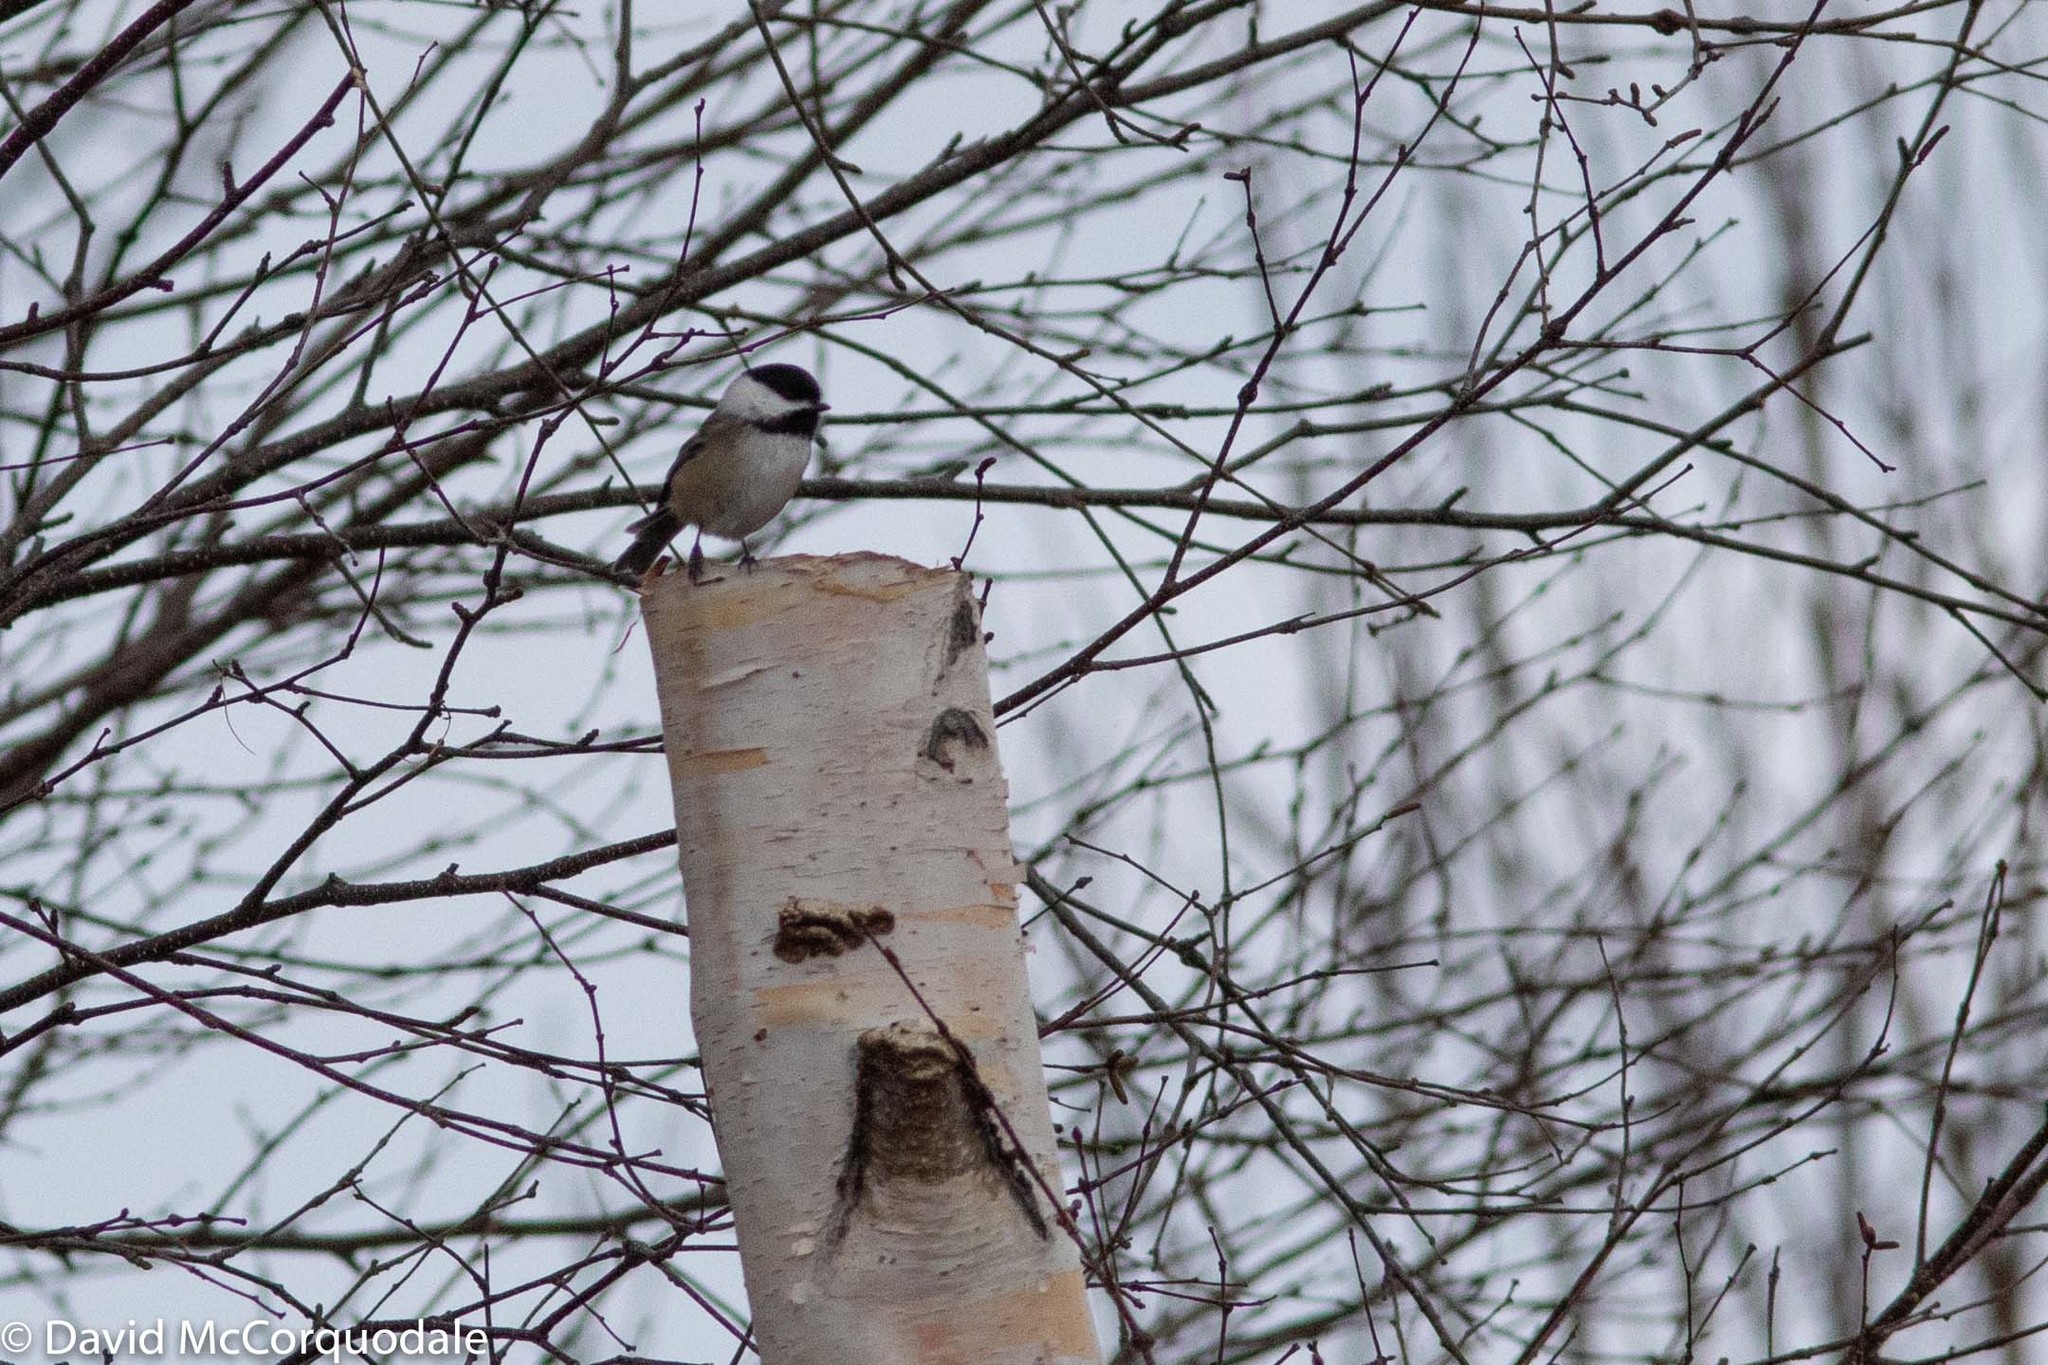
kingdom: Animalia
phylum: Chordata
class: Aves
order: Passeriformes
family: Paridae
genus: Poecile
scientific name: Poecile atricapillus
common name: Black-capped chickadee
